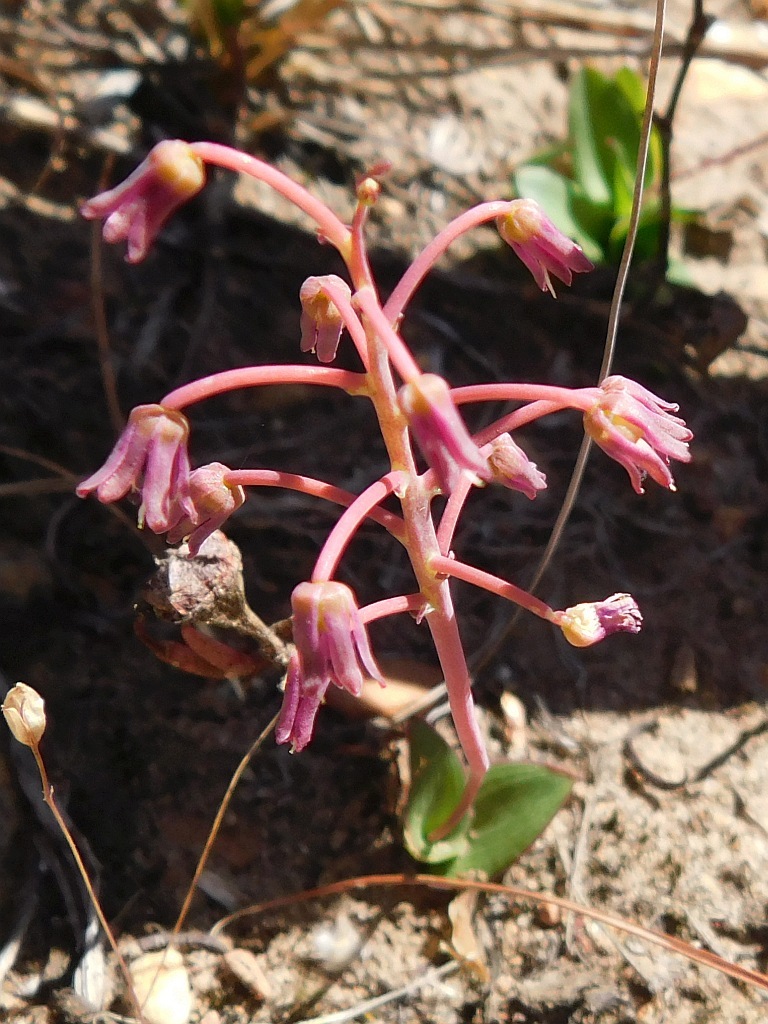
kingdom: Plantae
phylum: Tracheophyta
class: Liliopsida
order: Asparagales
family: Asparagaceae
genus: Ledebouria
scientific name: Ledebouria ovalifolia
